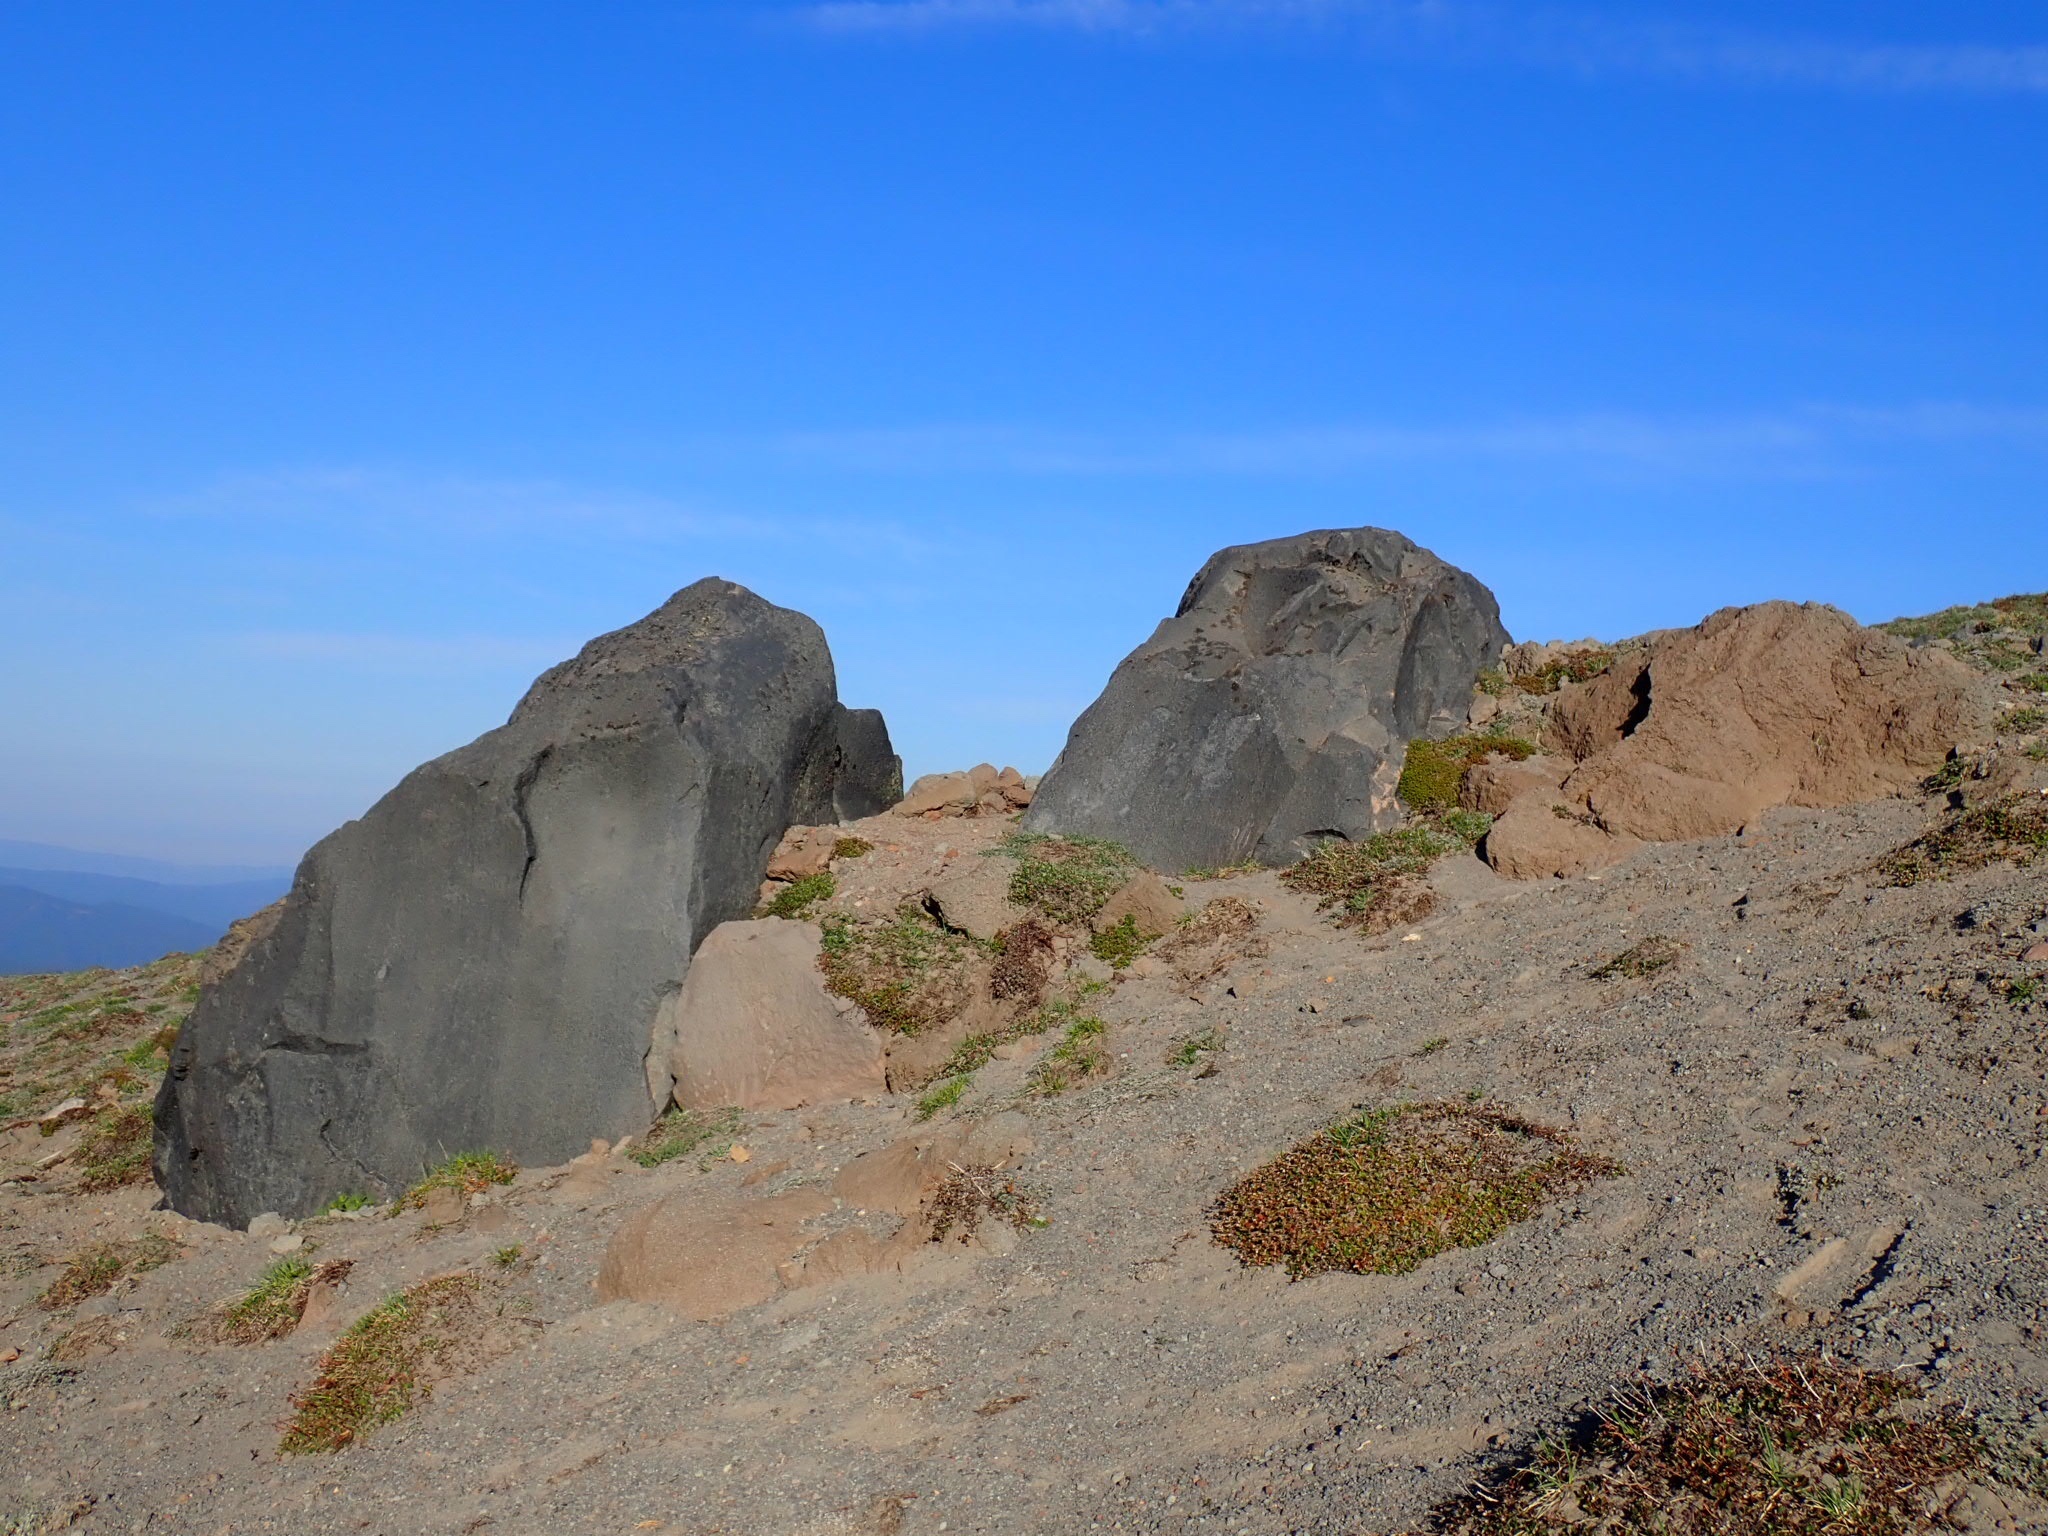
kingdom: Plantae
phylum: Tracheophyta
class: Magnoliopsida
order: Fabales
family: Fabaceae
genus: Lupinus
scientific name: Lupinus lepidus
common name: Prairie lupine
